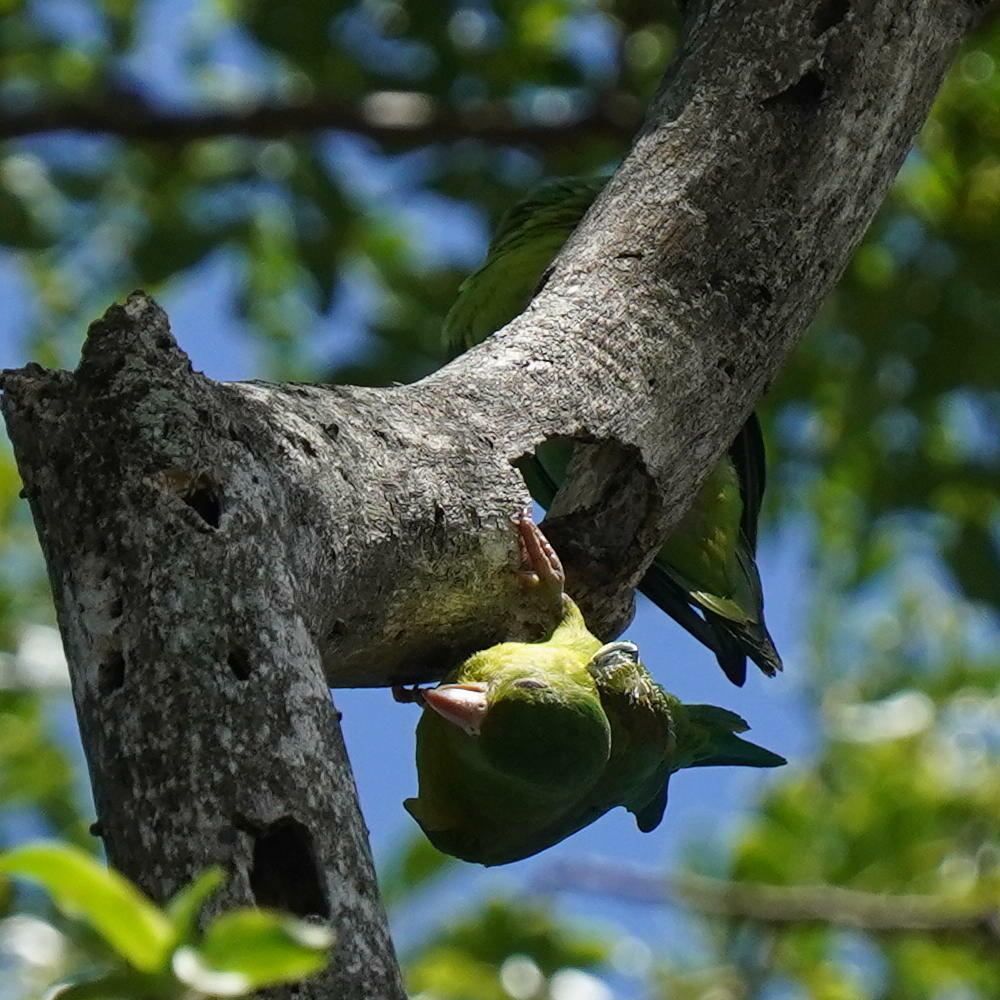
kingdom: Animalia
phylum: Chordata
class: Aves
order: Psittaciformes
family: Psittacidae
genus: Brotogeris
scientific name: Brotogeris jugularis
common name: Orange-chinned parakeet
